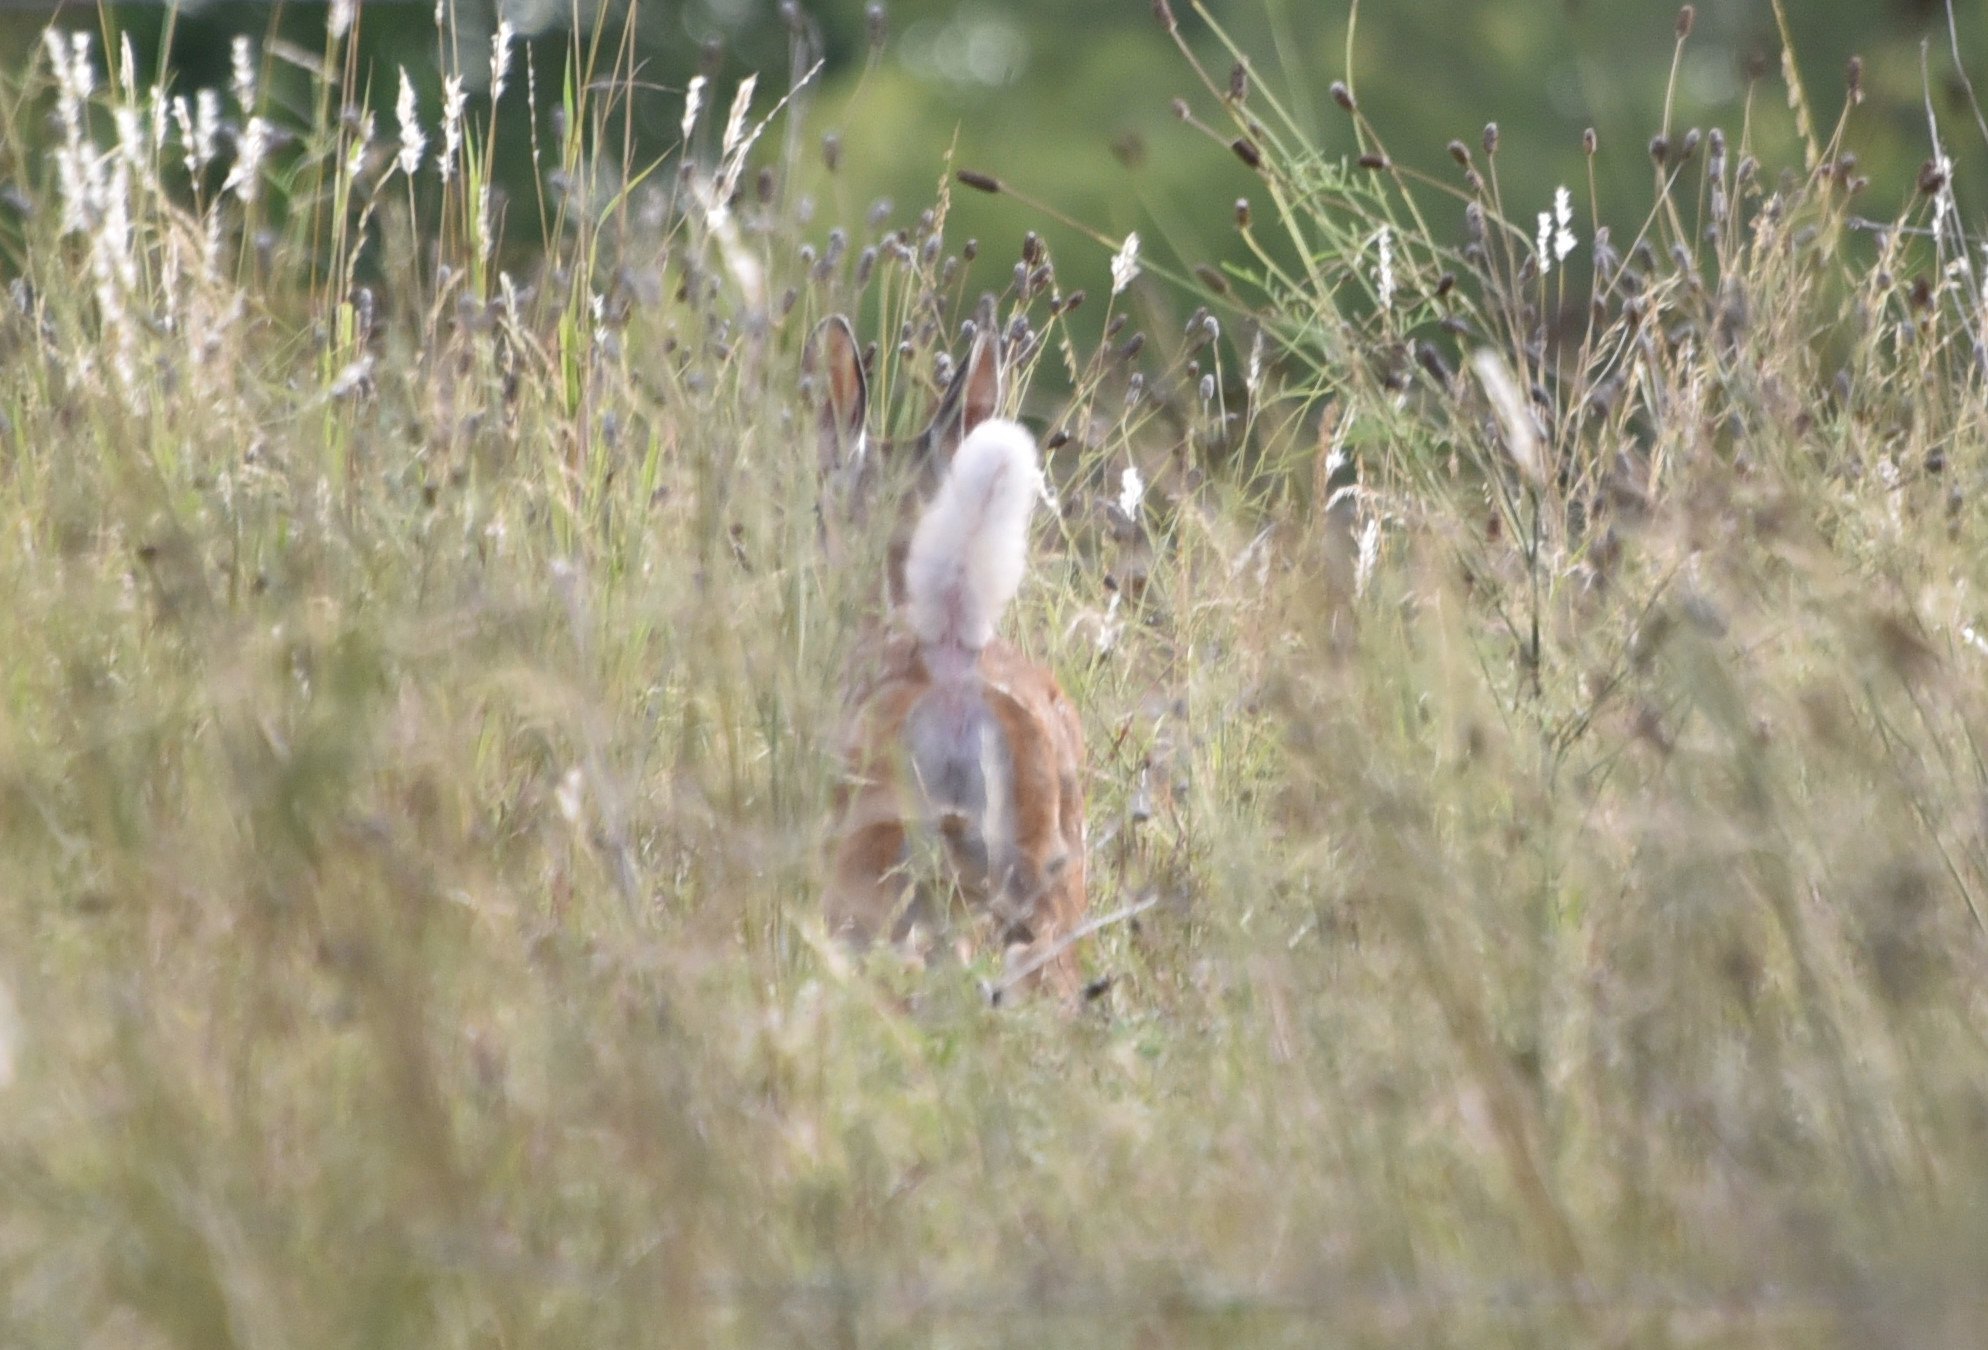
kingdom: Animalia
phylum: Chordata
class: Mammalia
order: Artiodactyla
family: Cervidae
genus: Odocoileus
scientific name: Odocoileus virginianus
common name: White-tailed deer
